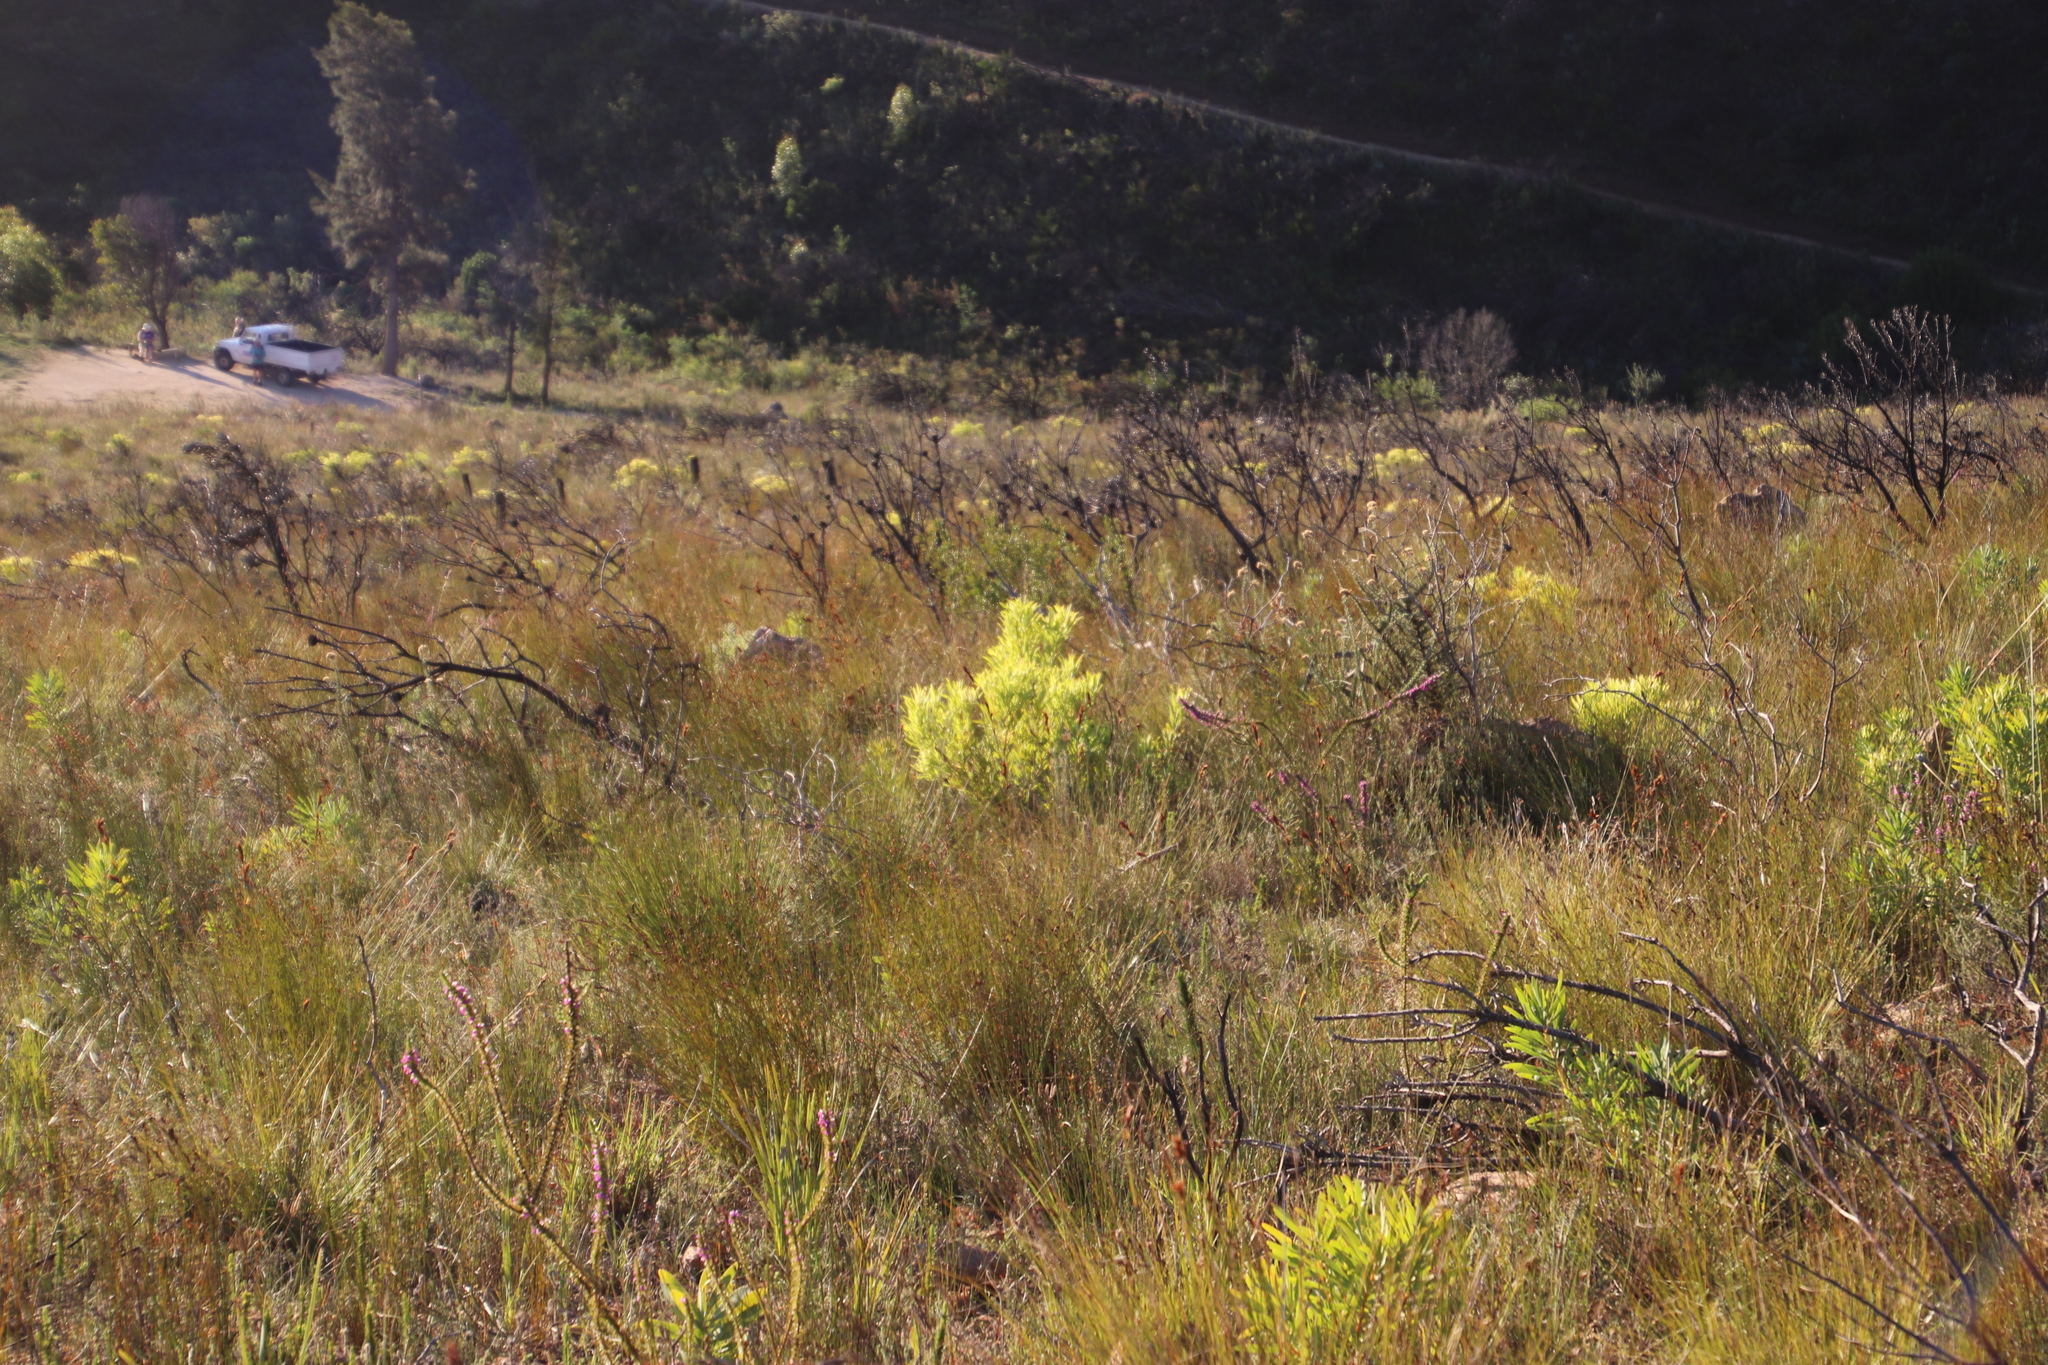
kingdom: Plantae
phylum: Tracheophyta
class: Magnoliopsida
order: Proteales
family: Proteaceae
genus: Leucadendron
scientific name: Leucadendron salignum
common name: Common sunshine conebush
